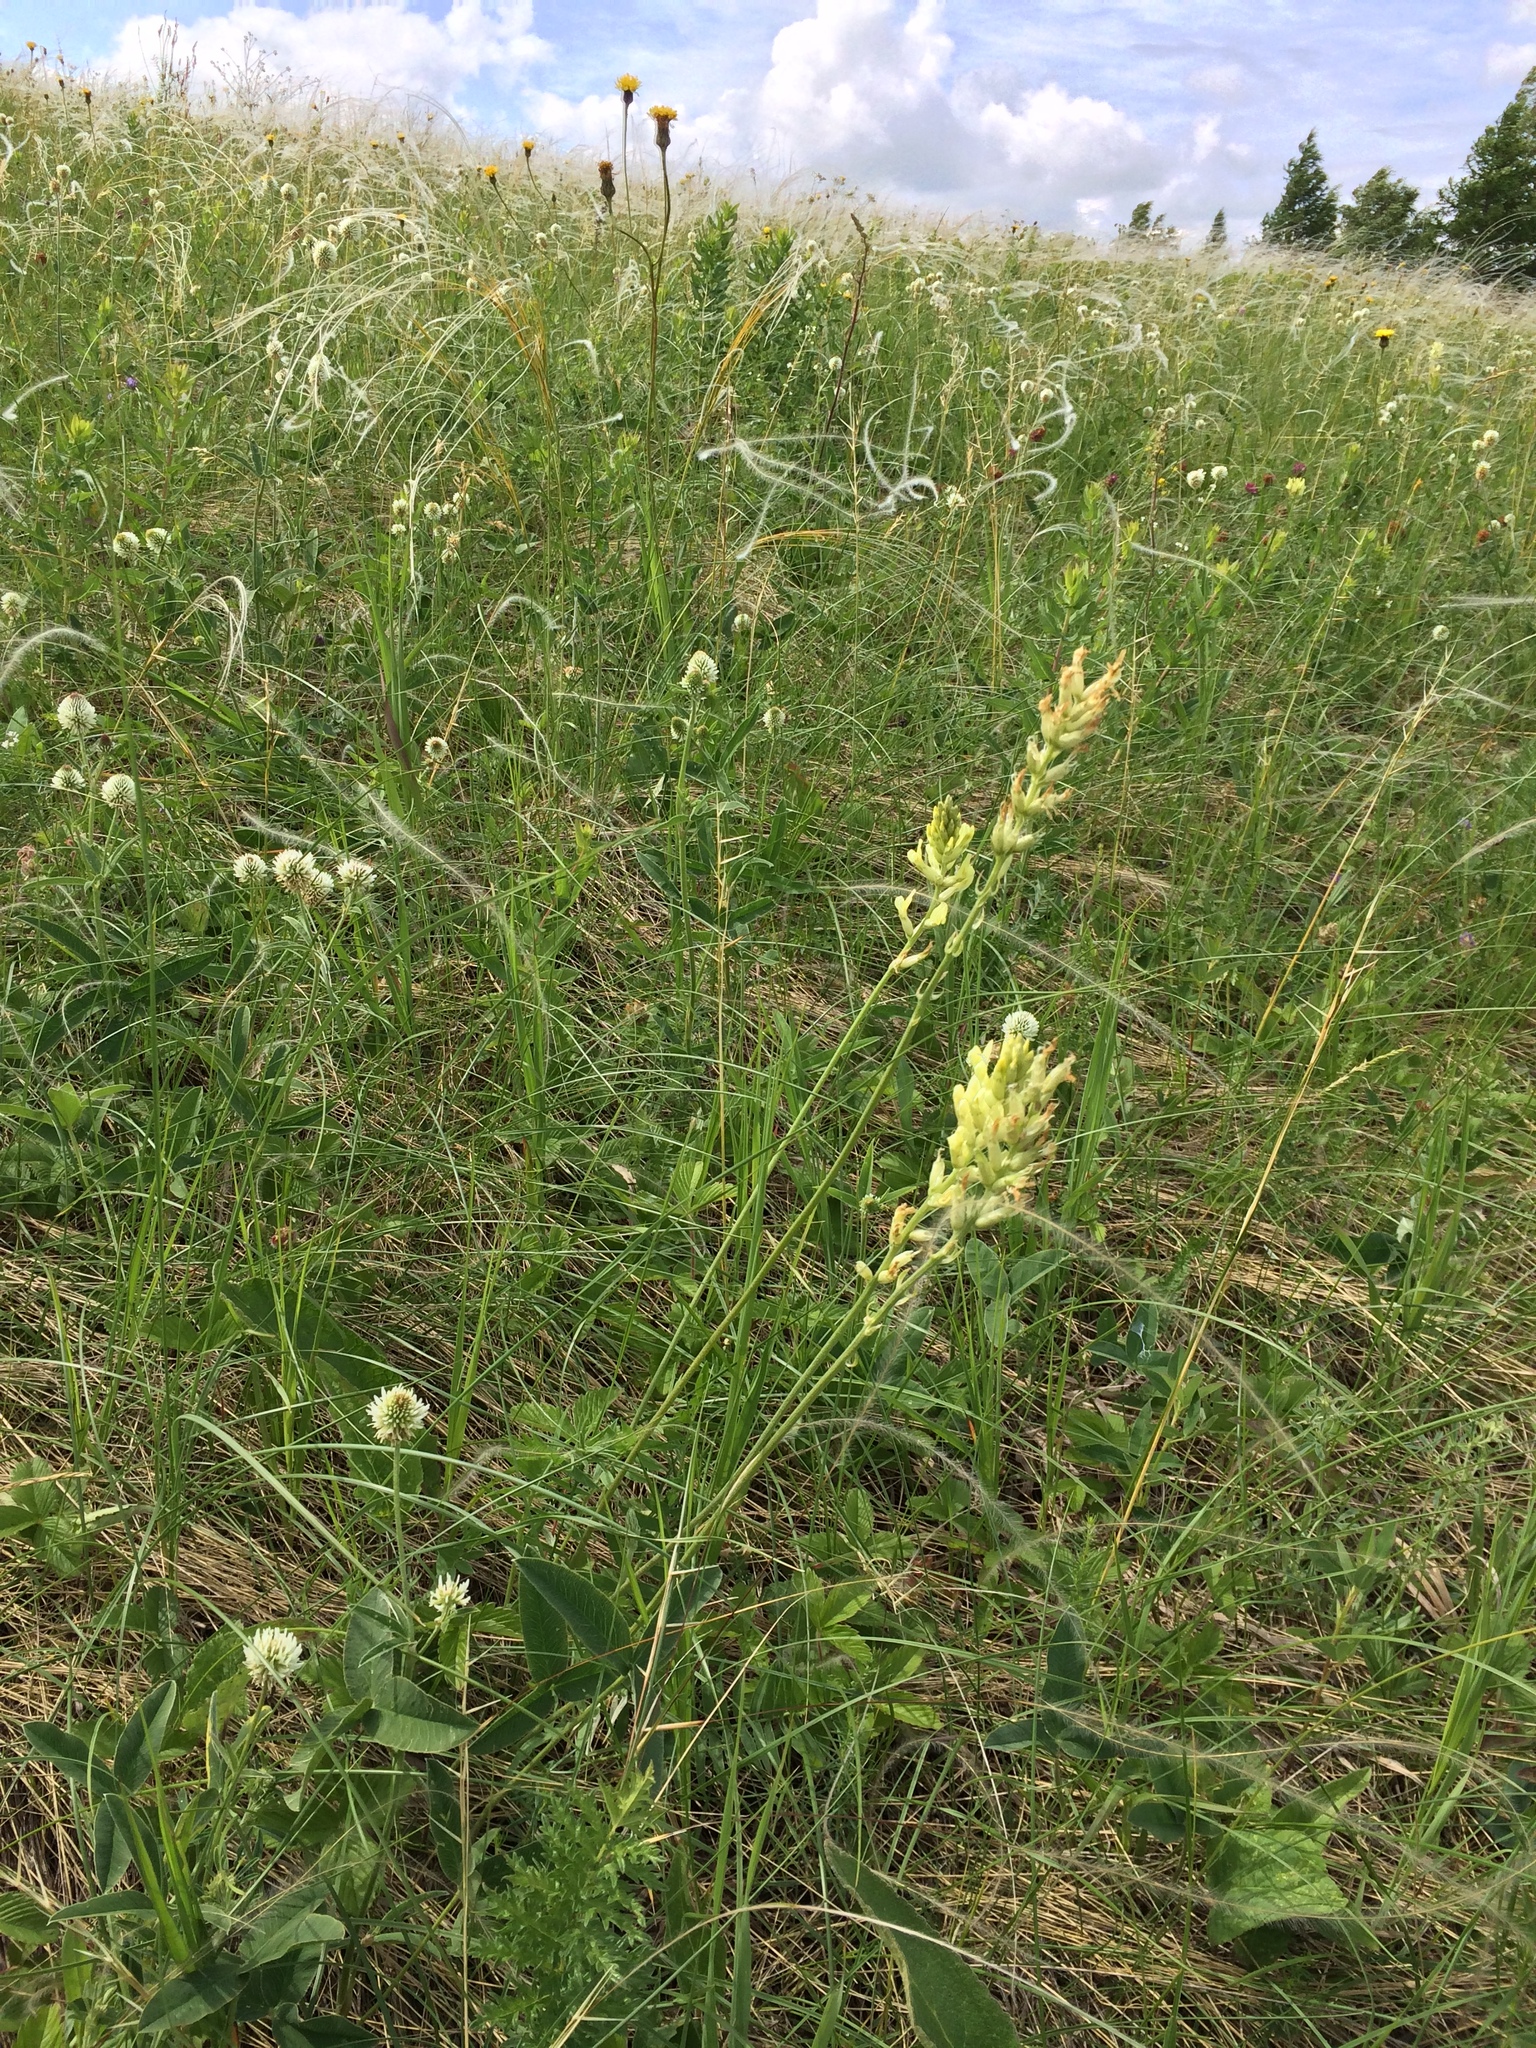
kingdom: Plantae
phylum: Tracheophyta
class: Magnoliopsida
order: Fabales
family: Fabaceae
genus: Oxytropis
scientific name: Oxytropis hippolyti
